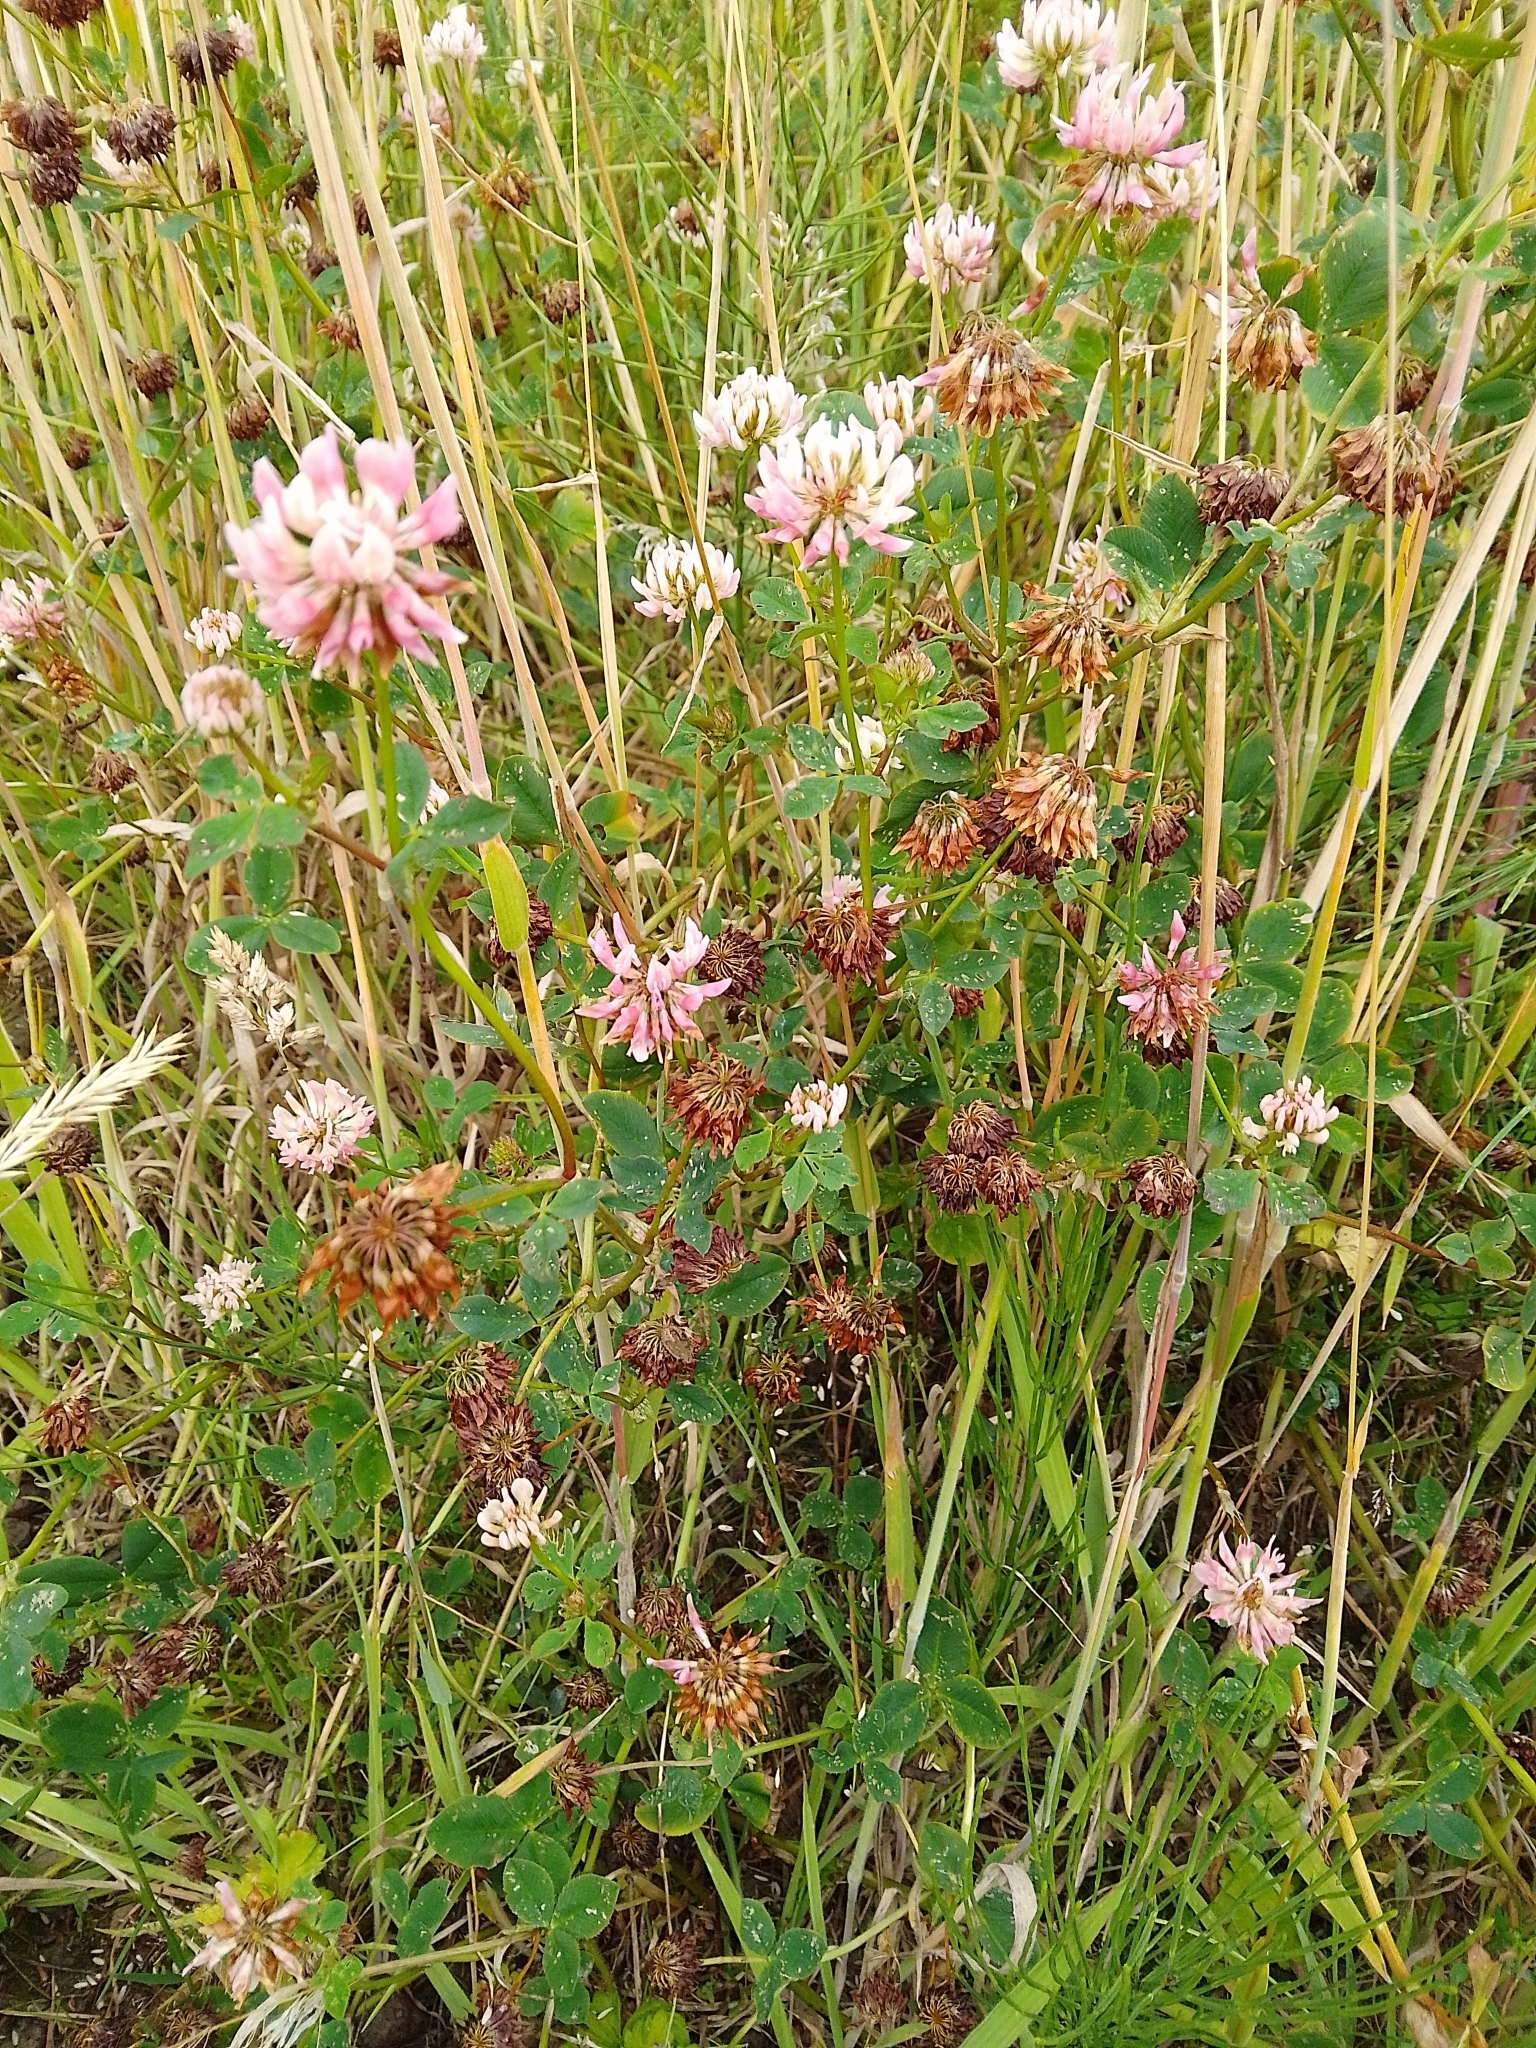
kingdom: Plantae
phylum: Tracheophyta
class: Magnoliopsida
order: Fabales
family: Fabaceae
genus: Trifolium
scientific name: Trifolium hybridum
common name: Alsike clover
